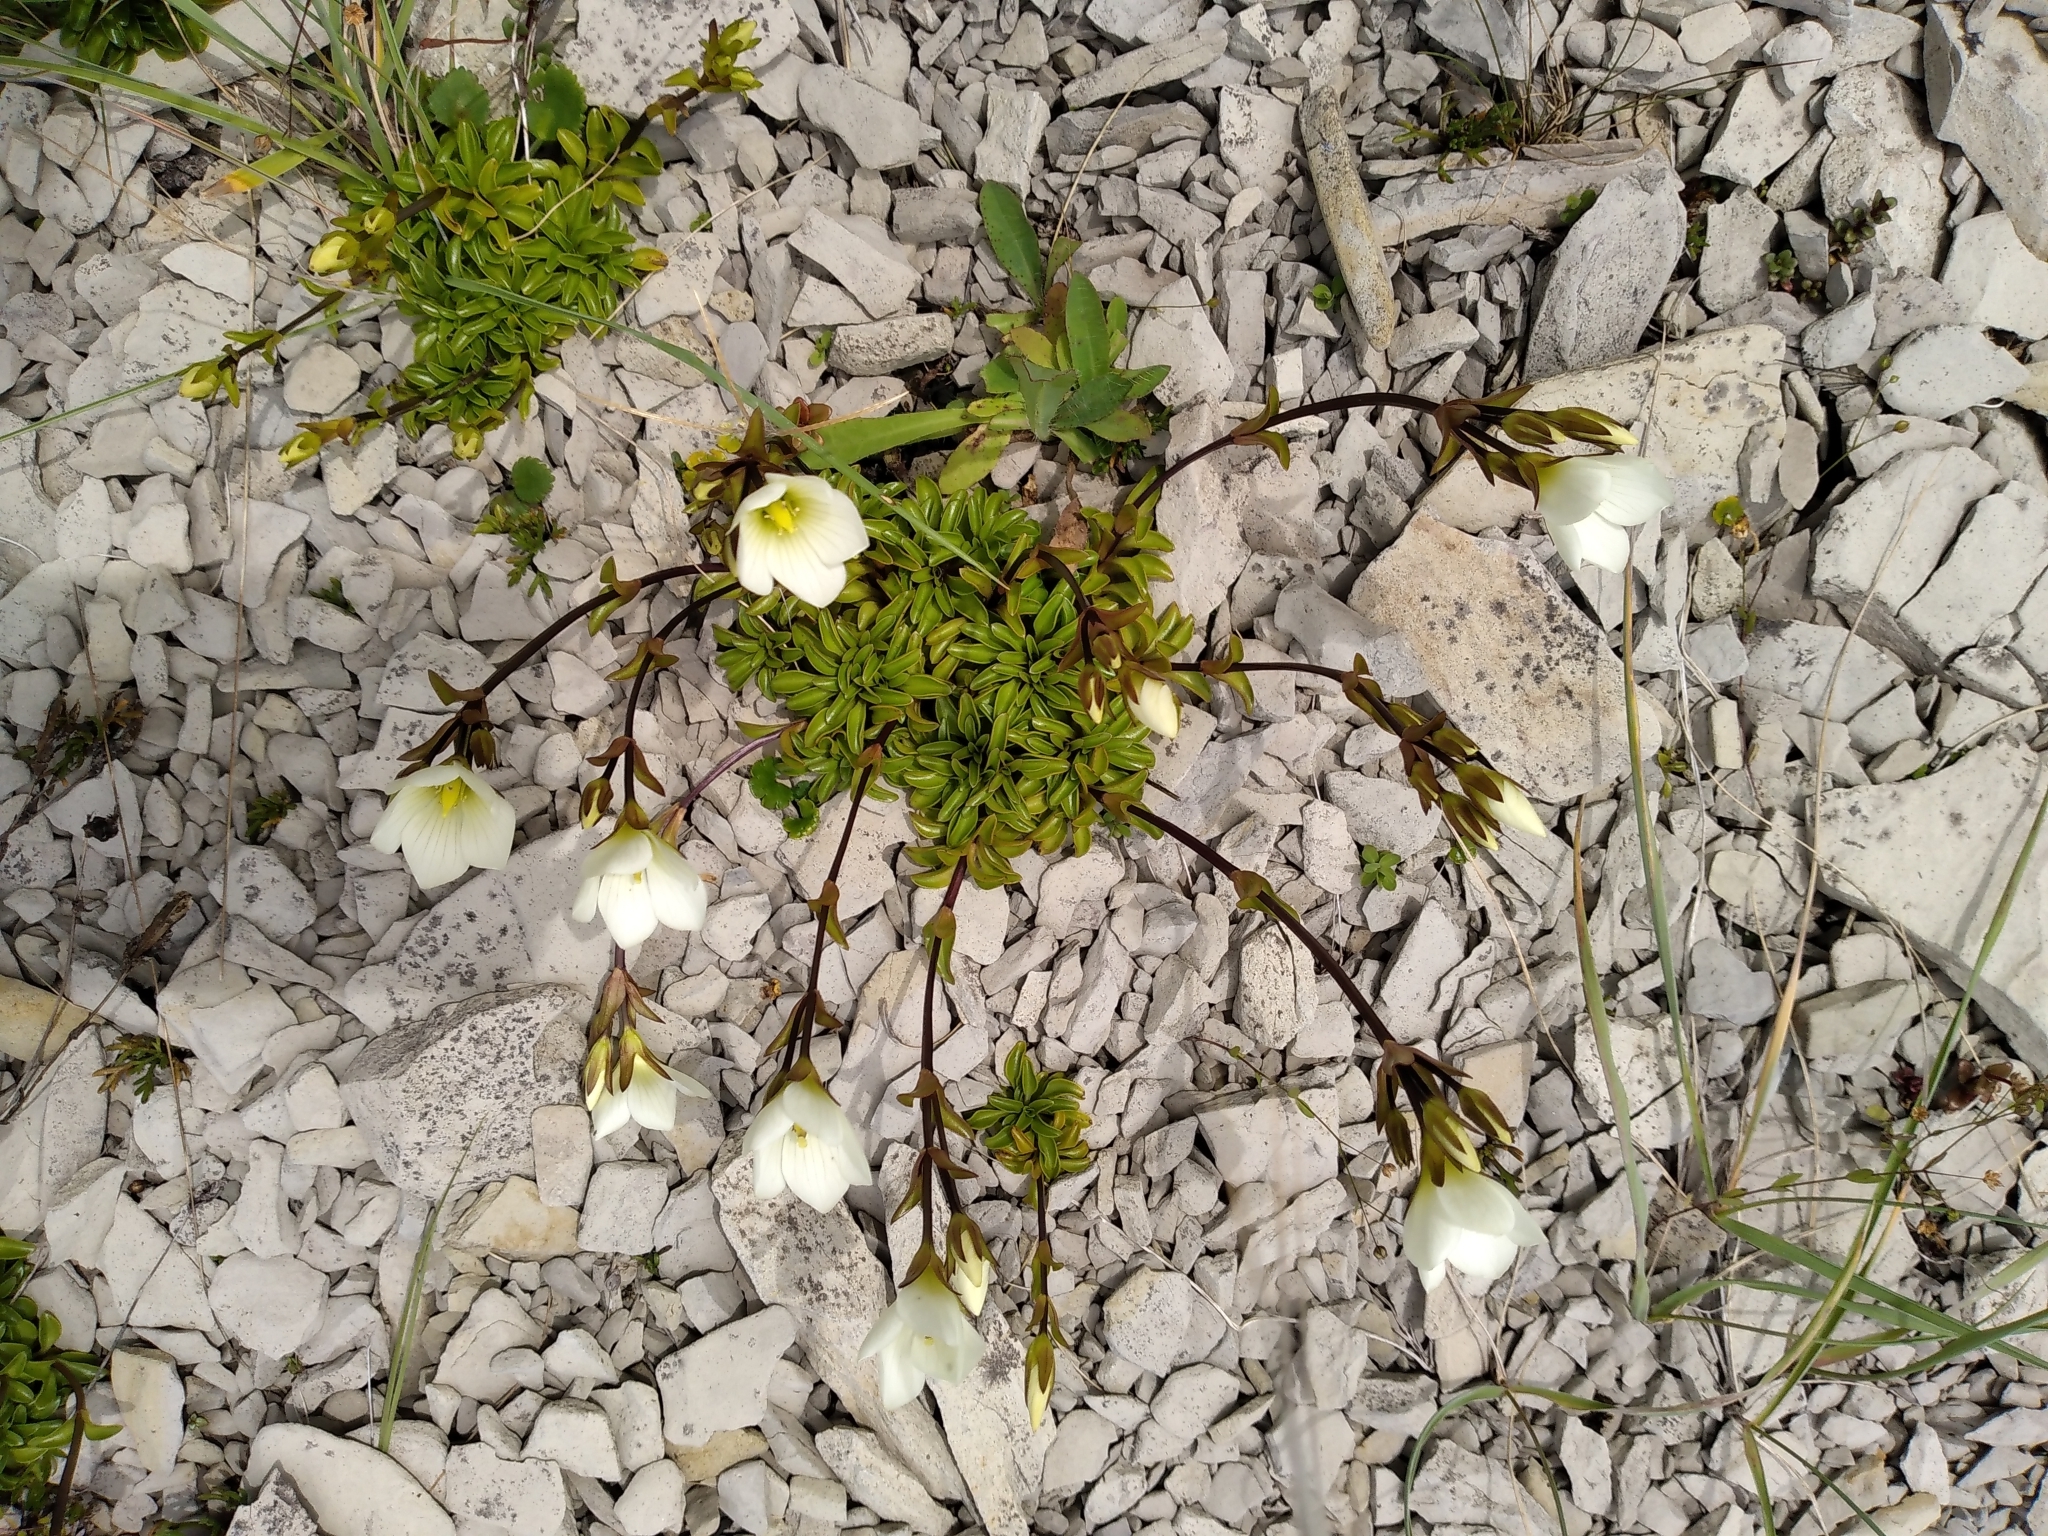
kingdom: Plantae
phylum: Tracheophyta
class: Magnoliopsida
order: Gentianales
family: Gentianaceae
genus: Gentianella
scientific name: Gentianella decumbens
